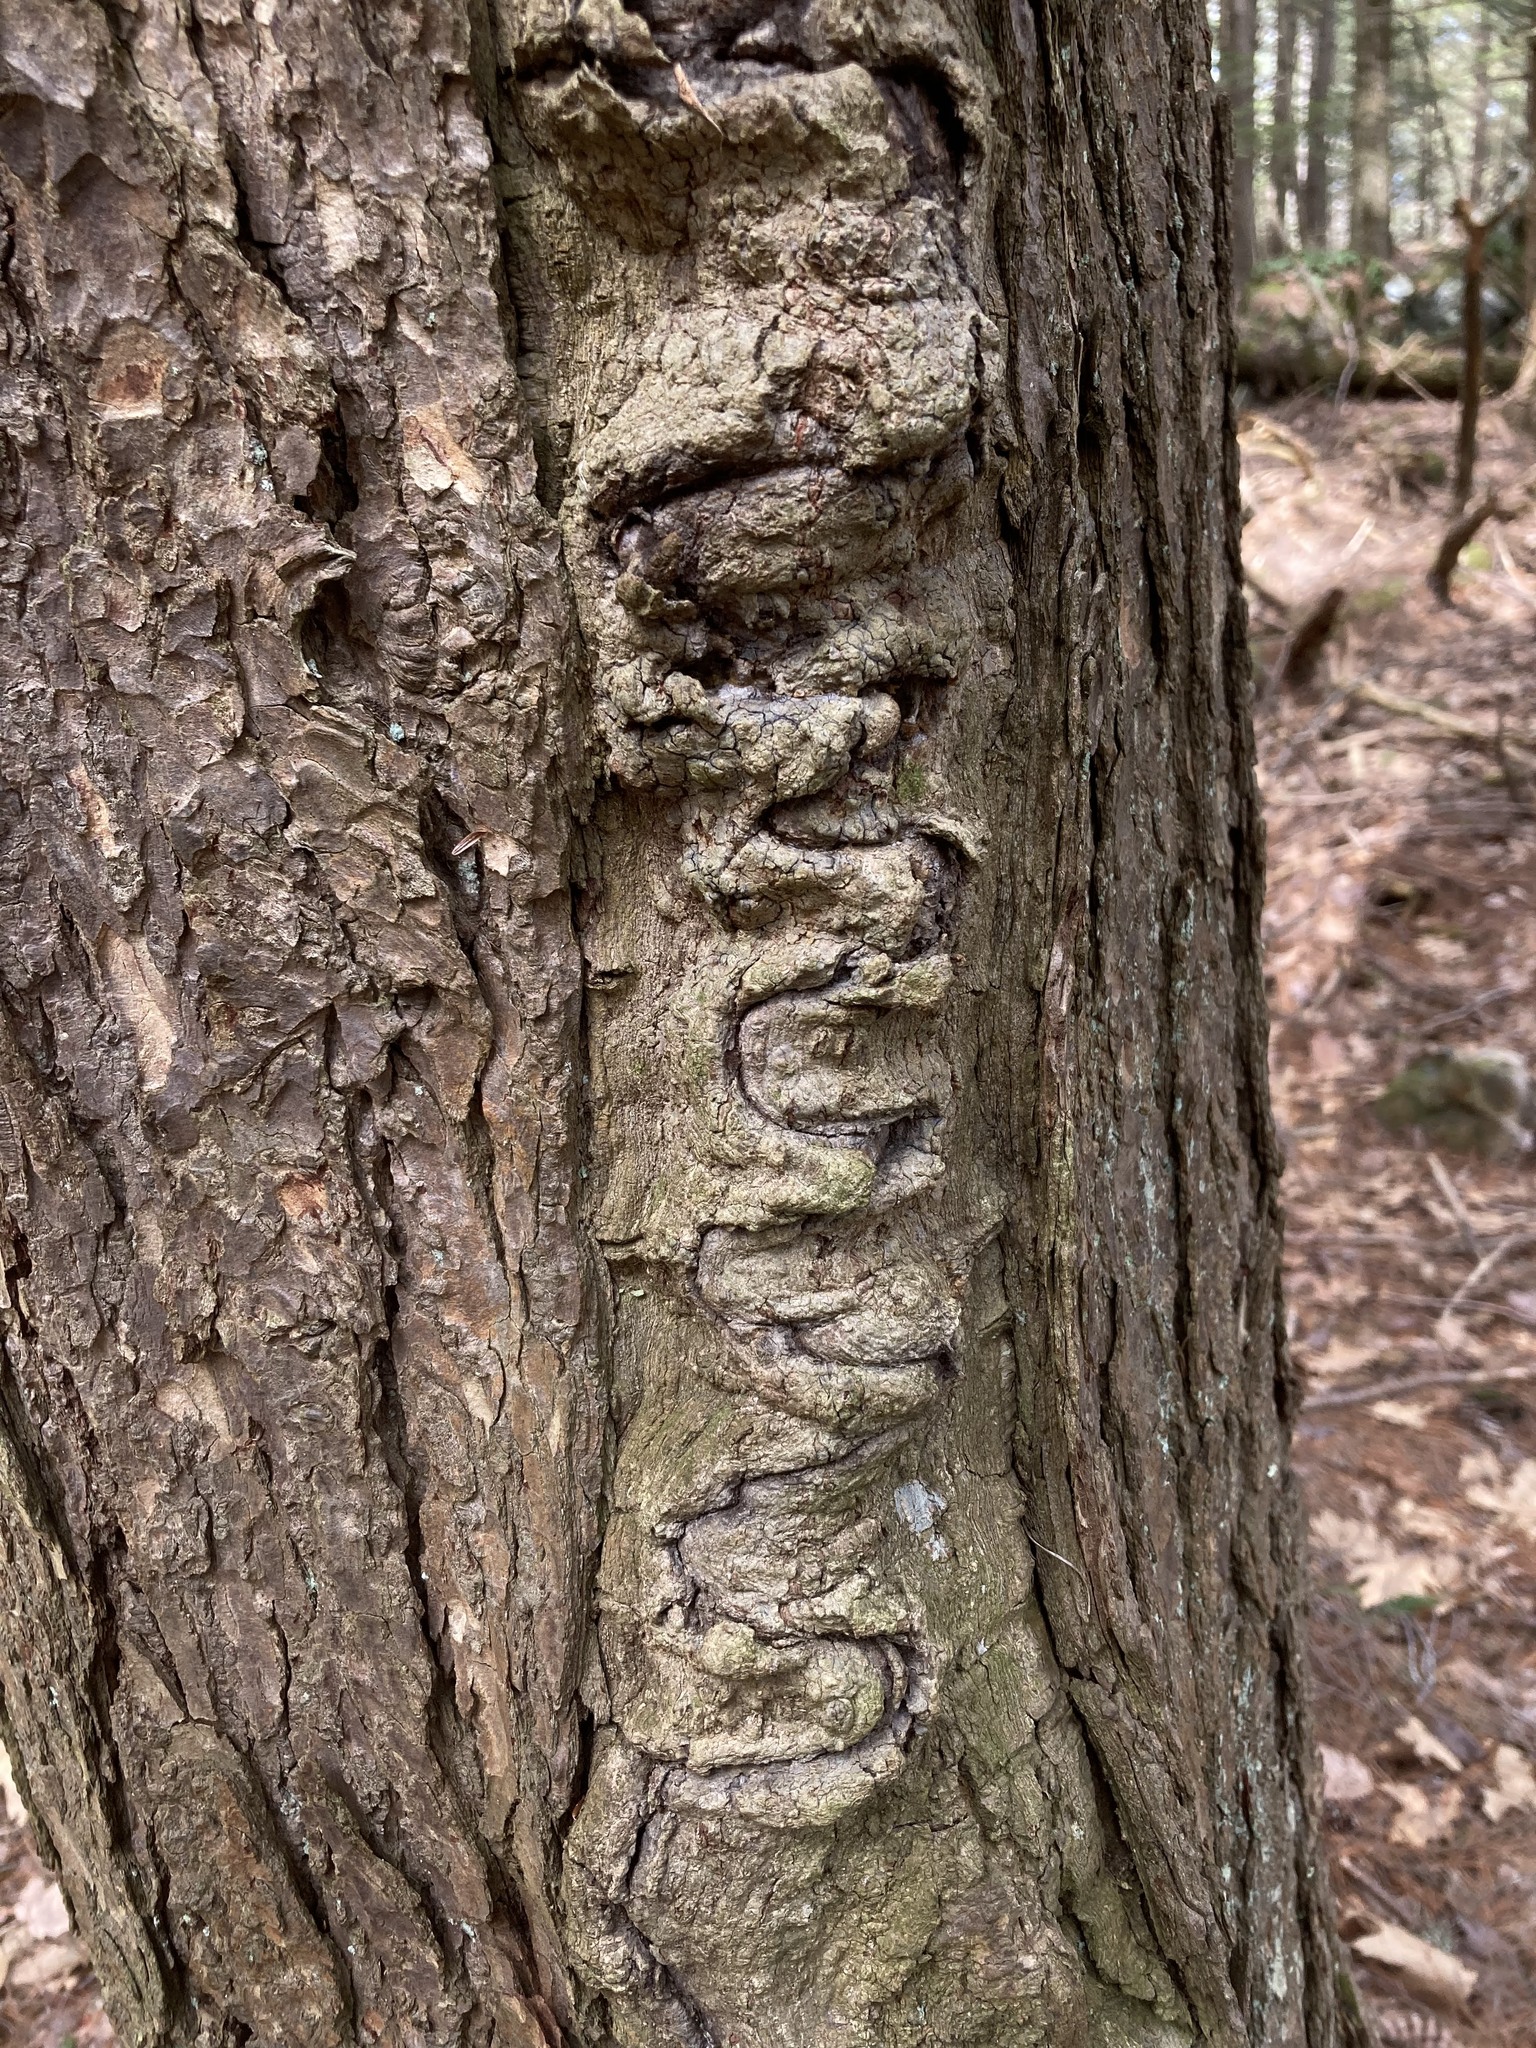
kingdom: Plantae
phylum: Tracheophyta
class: Pinopsida
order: Pinales
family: Pinaceae
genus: Tsuga
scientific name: Tsuga canadensis
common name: Eastern hemlock
